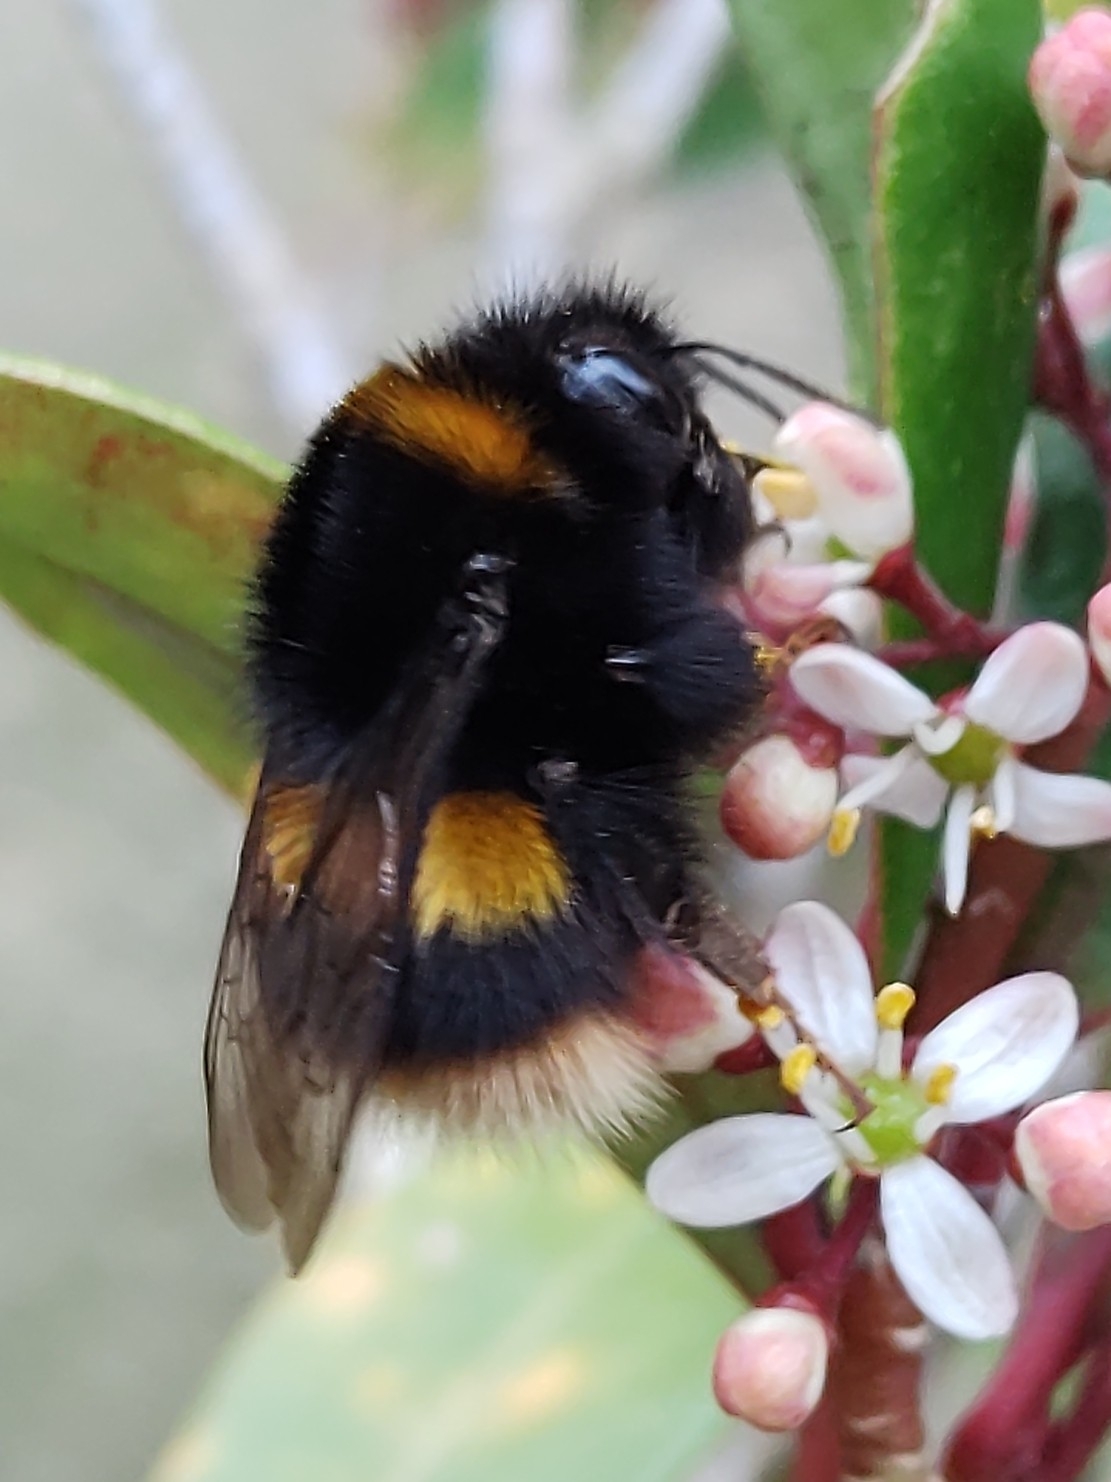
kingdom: Animalia
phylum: Arthropoda
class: Insecta
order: Hymenoptera
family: Apidae
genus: Bombus
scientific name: Bombus terrestris
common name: Buff-tailed bumblebee
